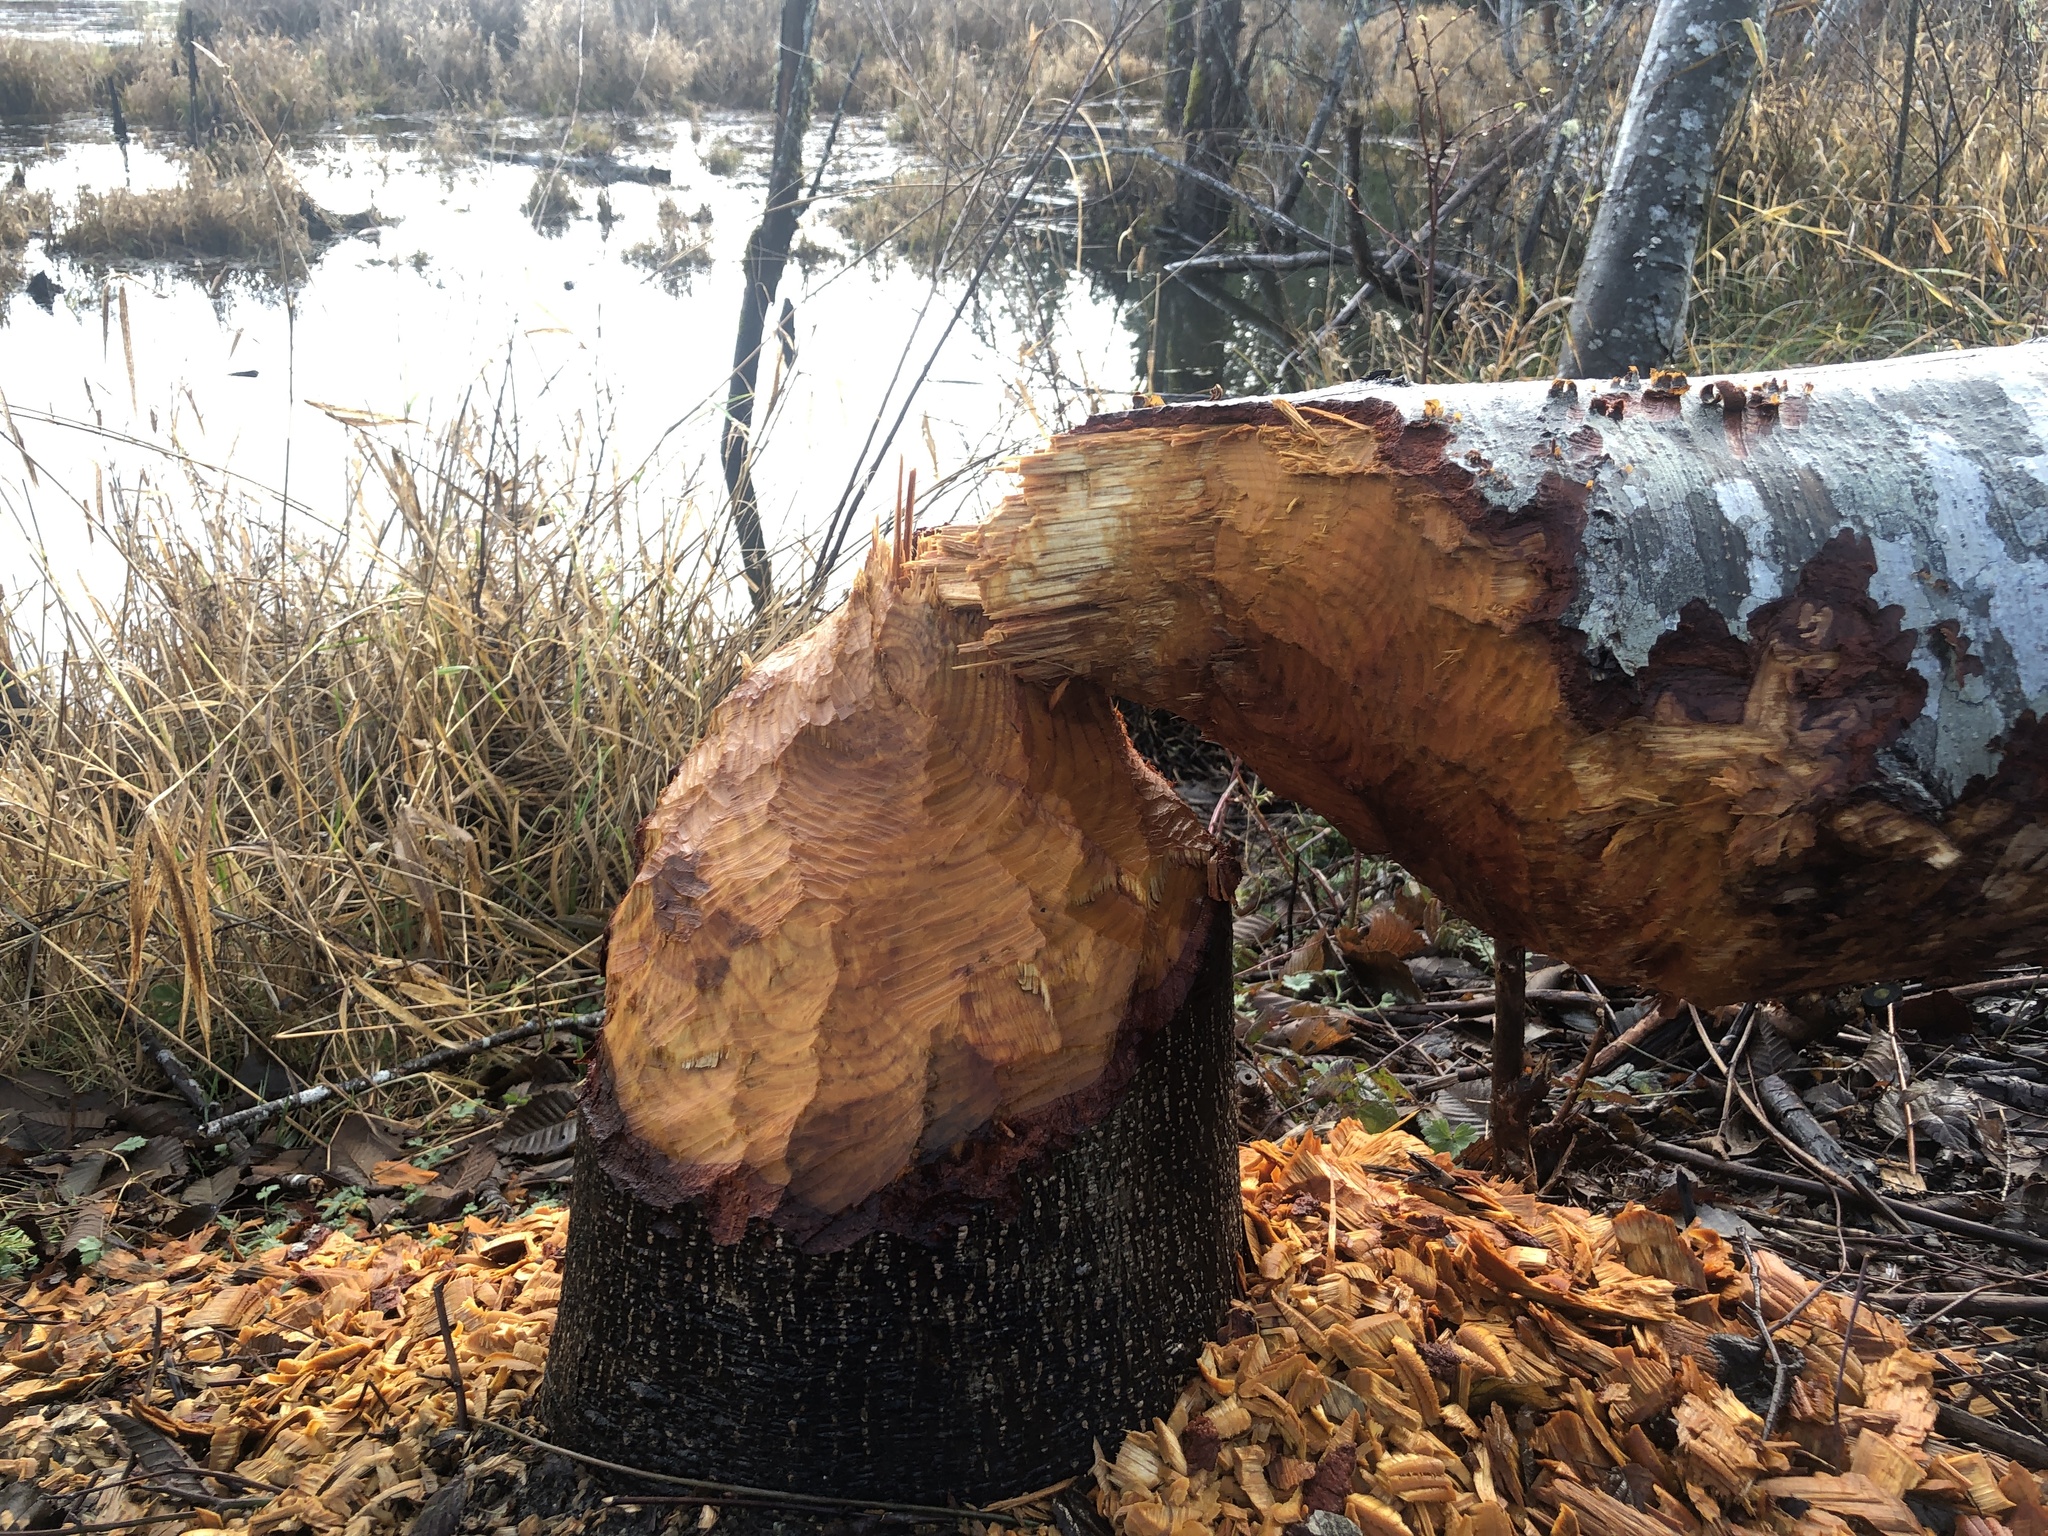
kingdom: Animalia
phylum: Chordata
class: Mammalia
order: Rodentia
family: Castoridae
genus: Castor
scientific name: Castor canadensis
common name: American beaver
